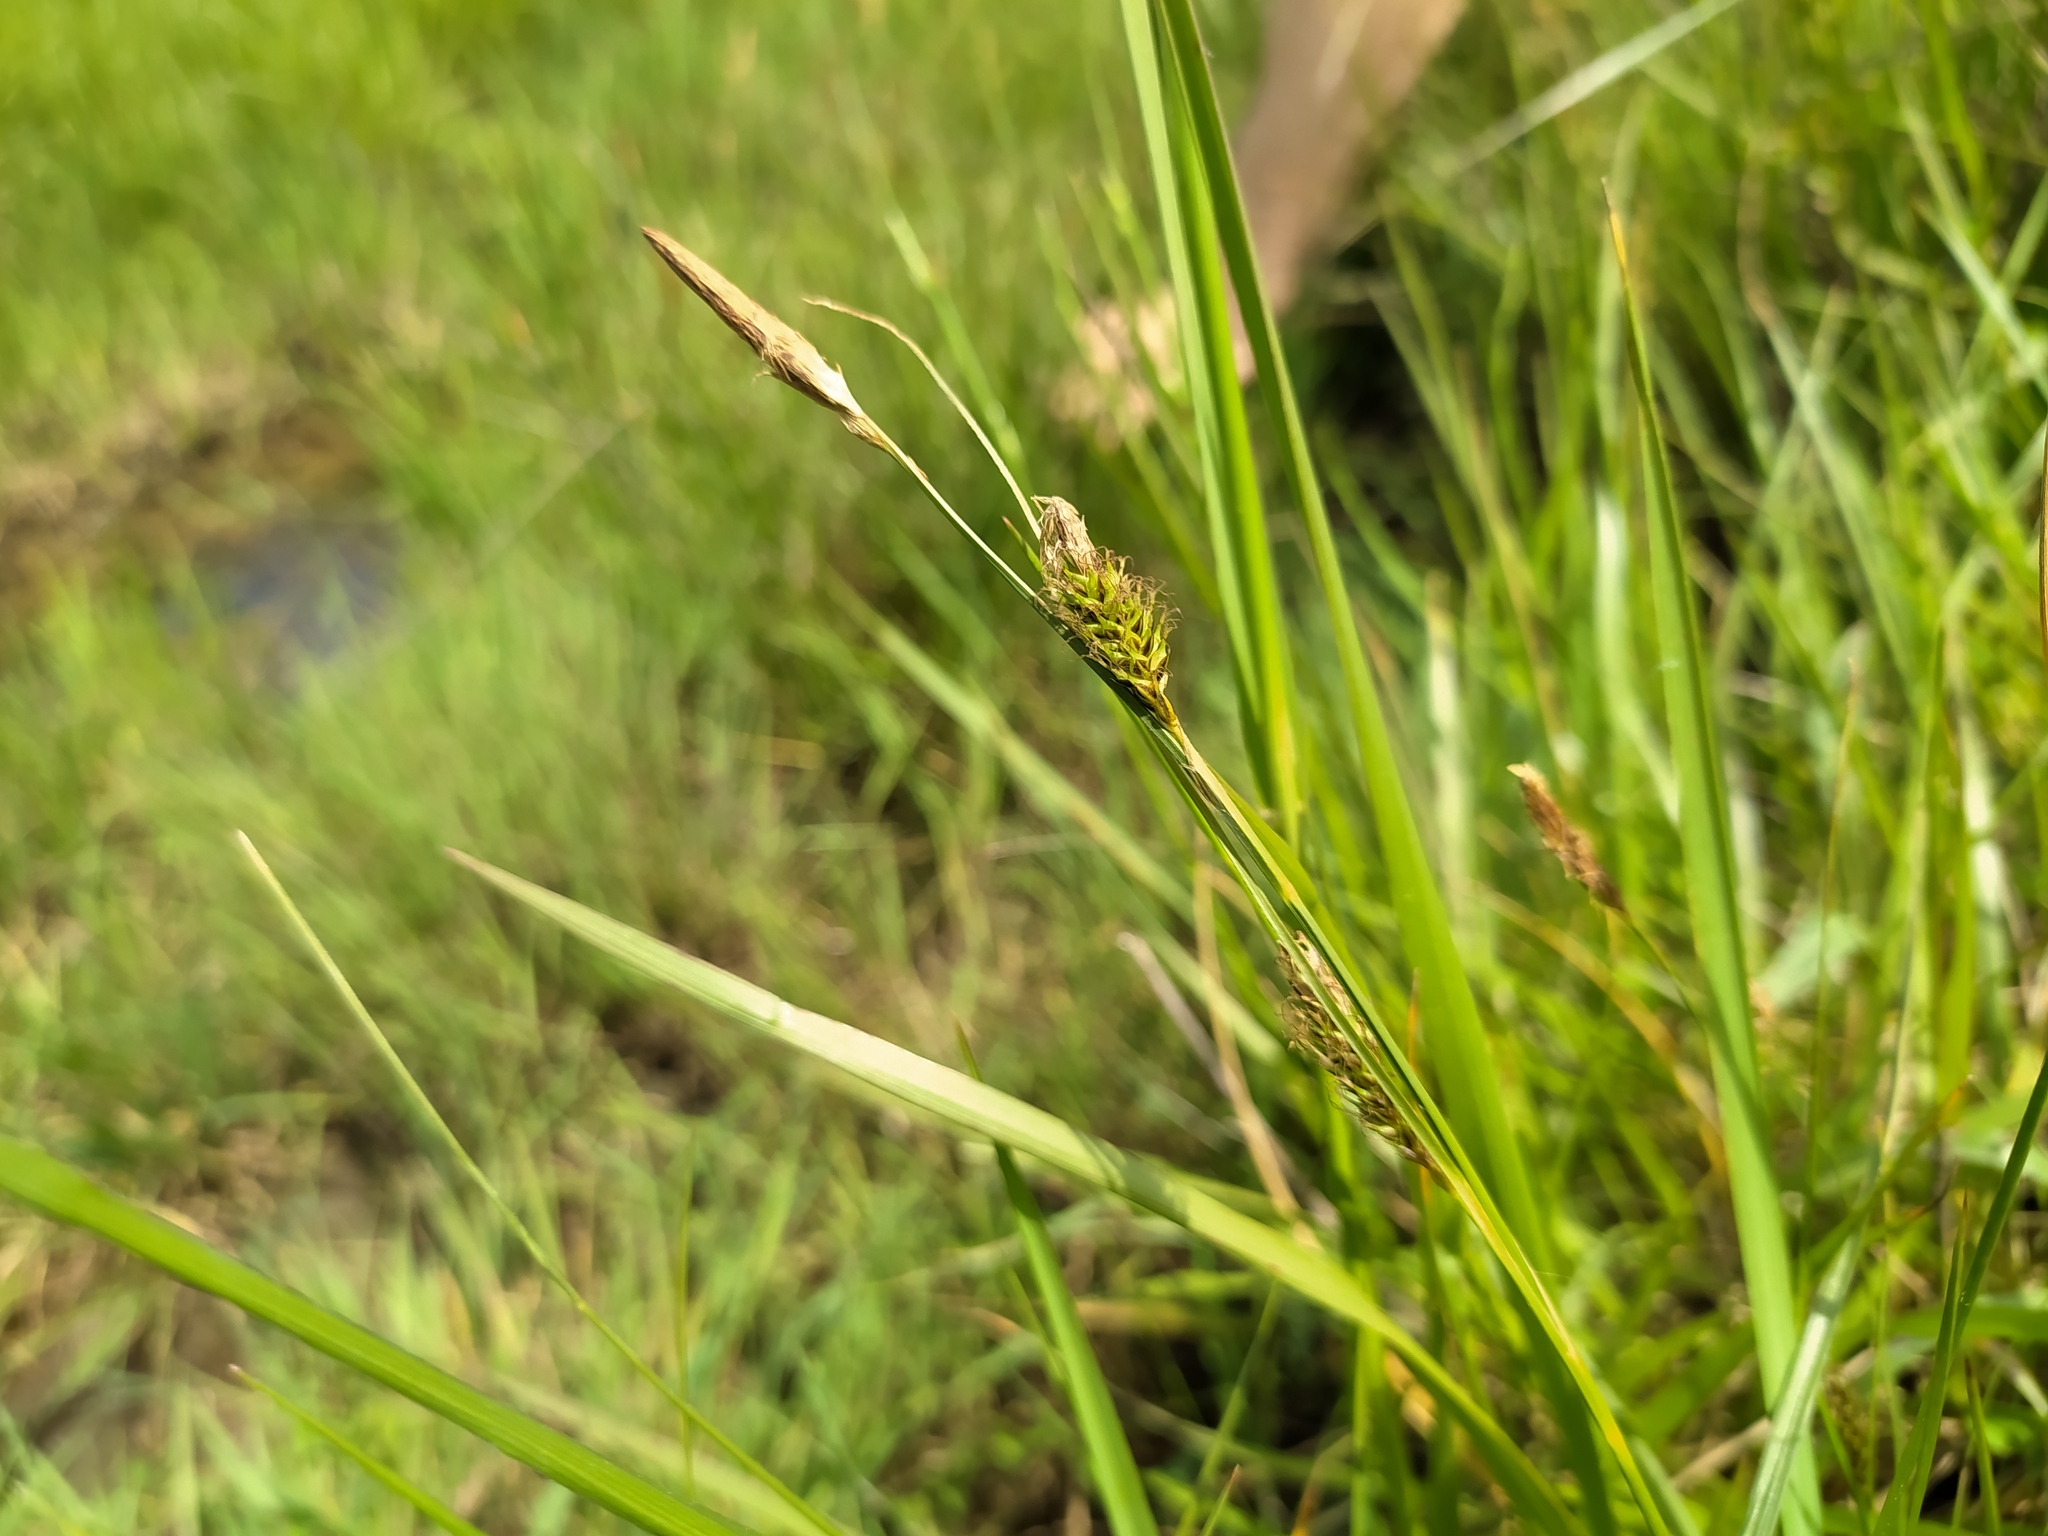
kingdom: Plantae
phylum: Tracheophyta
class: Liliopsida
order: Poales
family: Cyperaceae
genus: Carex
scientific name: Carex distans
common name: Distant sedge
